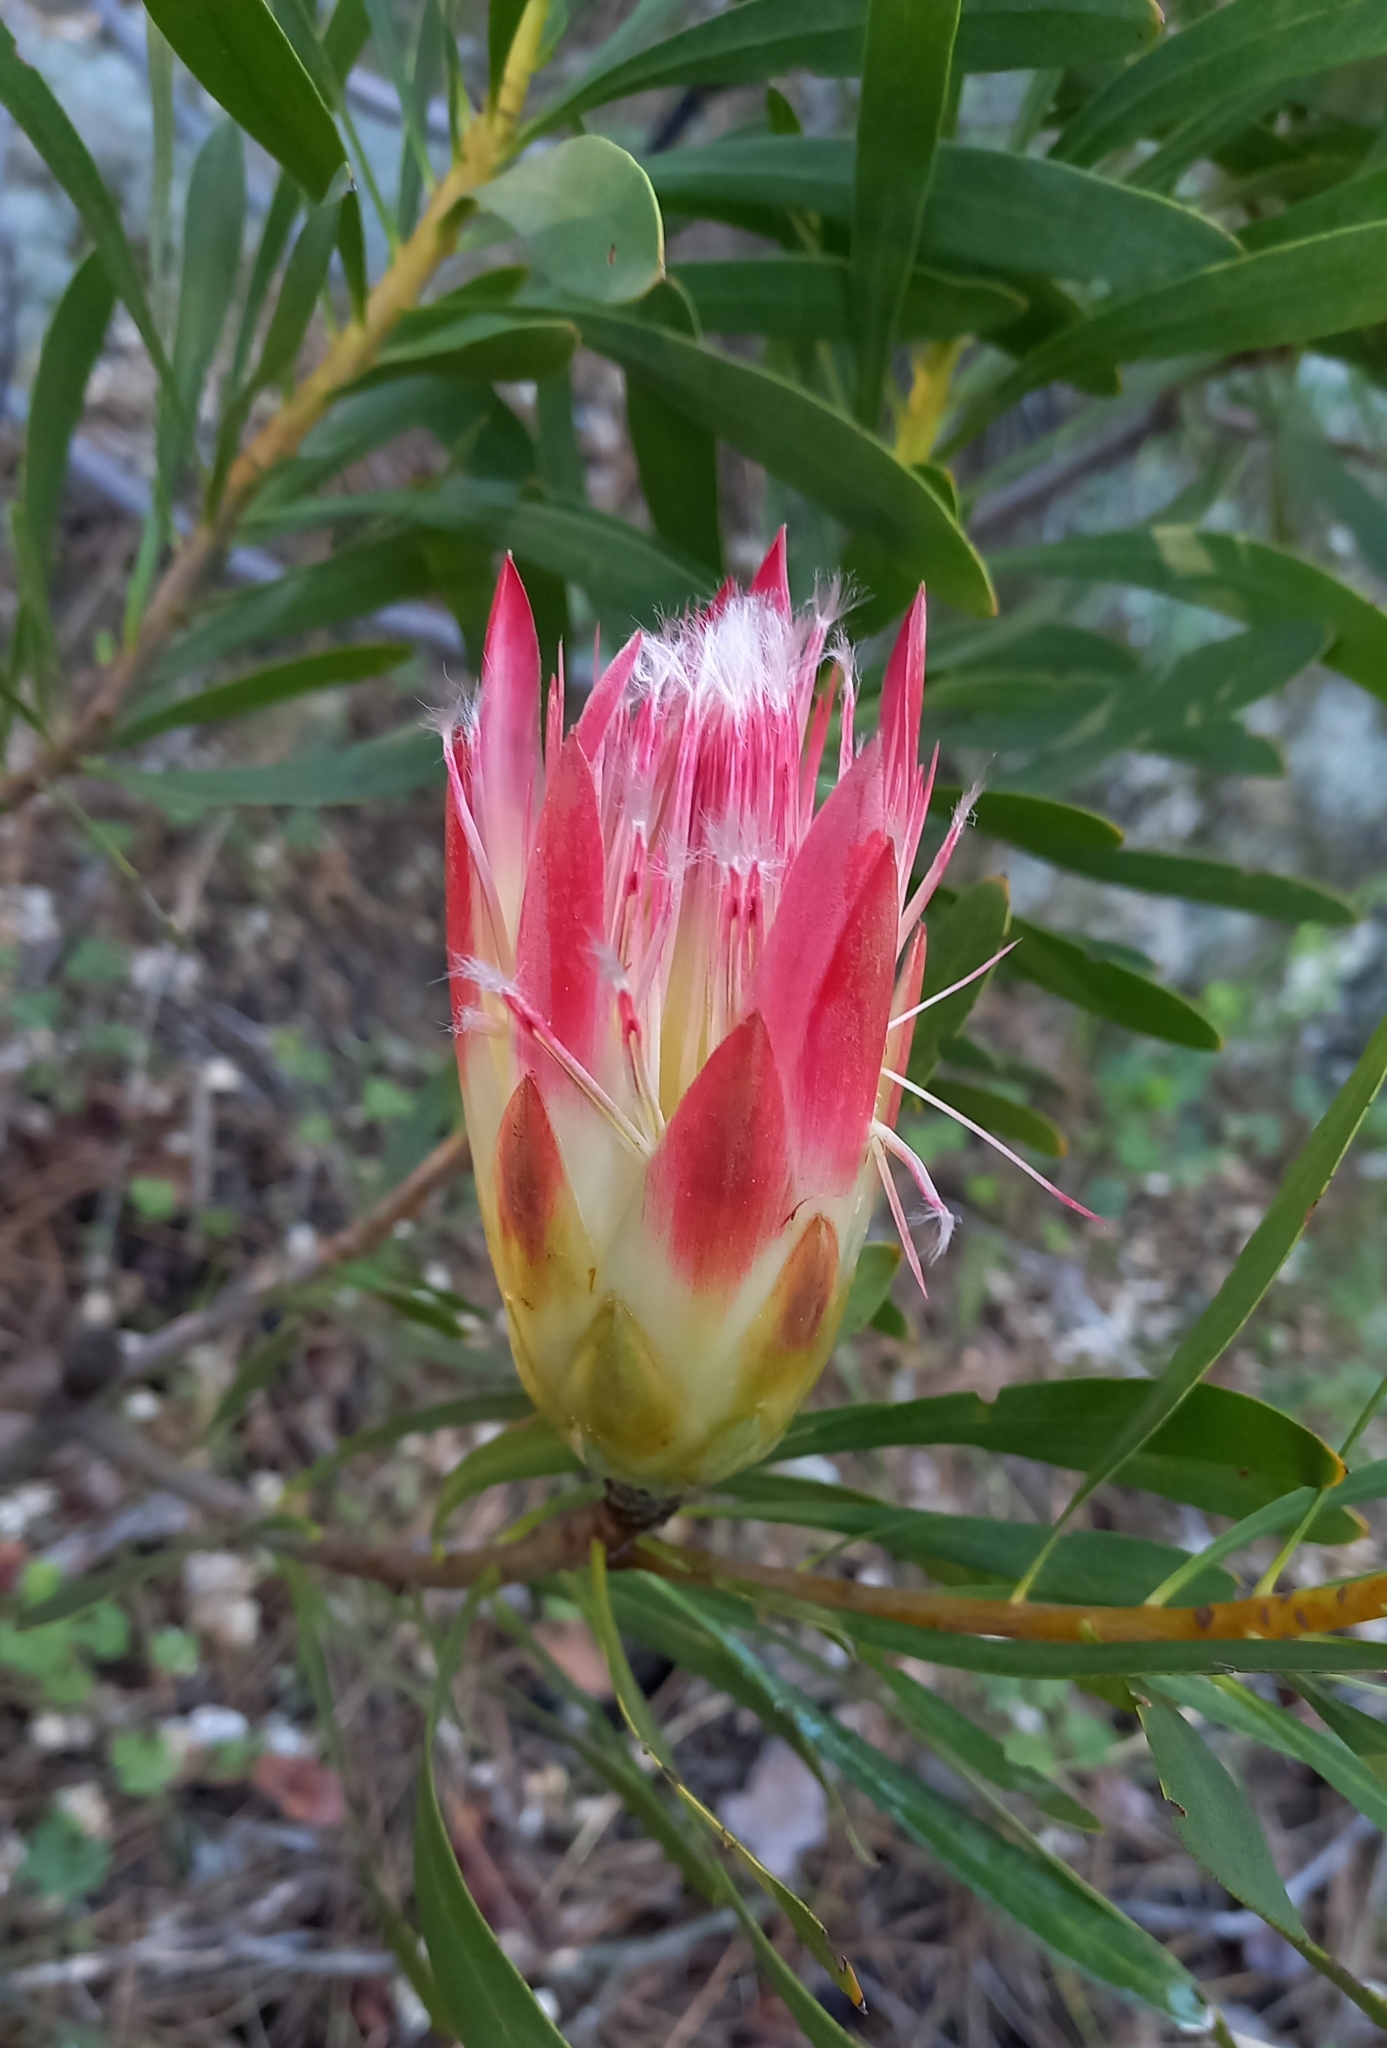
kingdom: Plantae
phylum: Tracheophyta
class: Magnoliopsida
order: Proteales
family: Proteaceae
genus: Protea
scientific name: Protea repens
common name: Sugarbush
